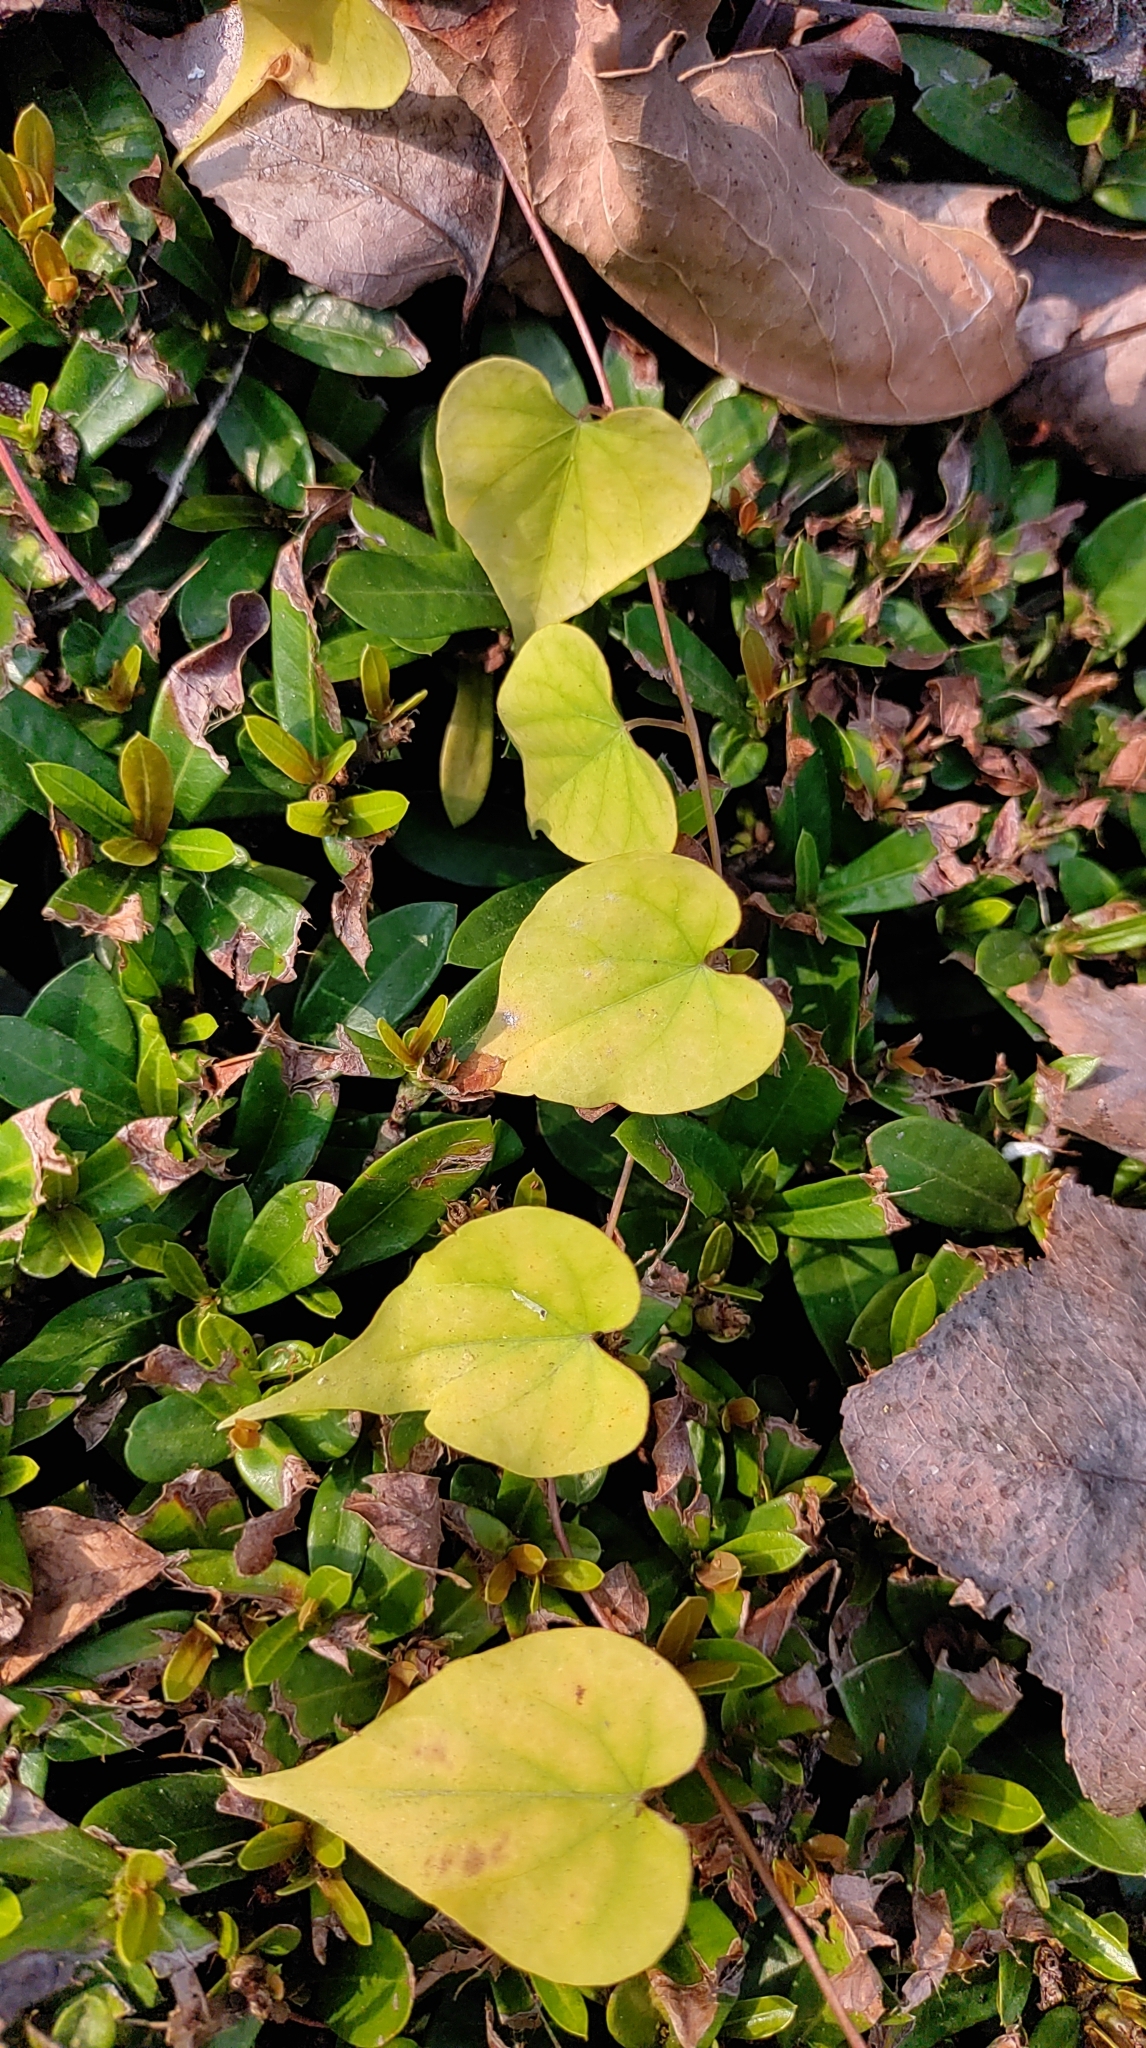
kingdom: Plantae
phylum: Tracheophyta
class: Magnoliopsida
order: Solanales
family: Convolvulaceae
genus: Ipomoea
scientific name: Ipomoea obscura
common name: Obscure morning-glory
